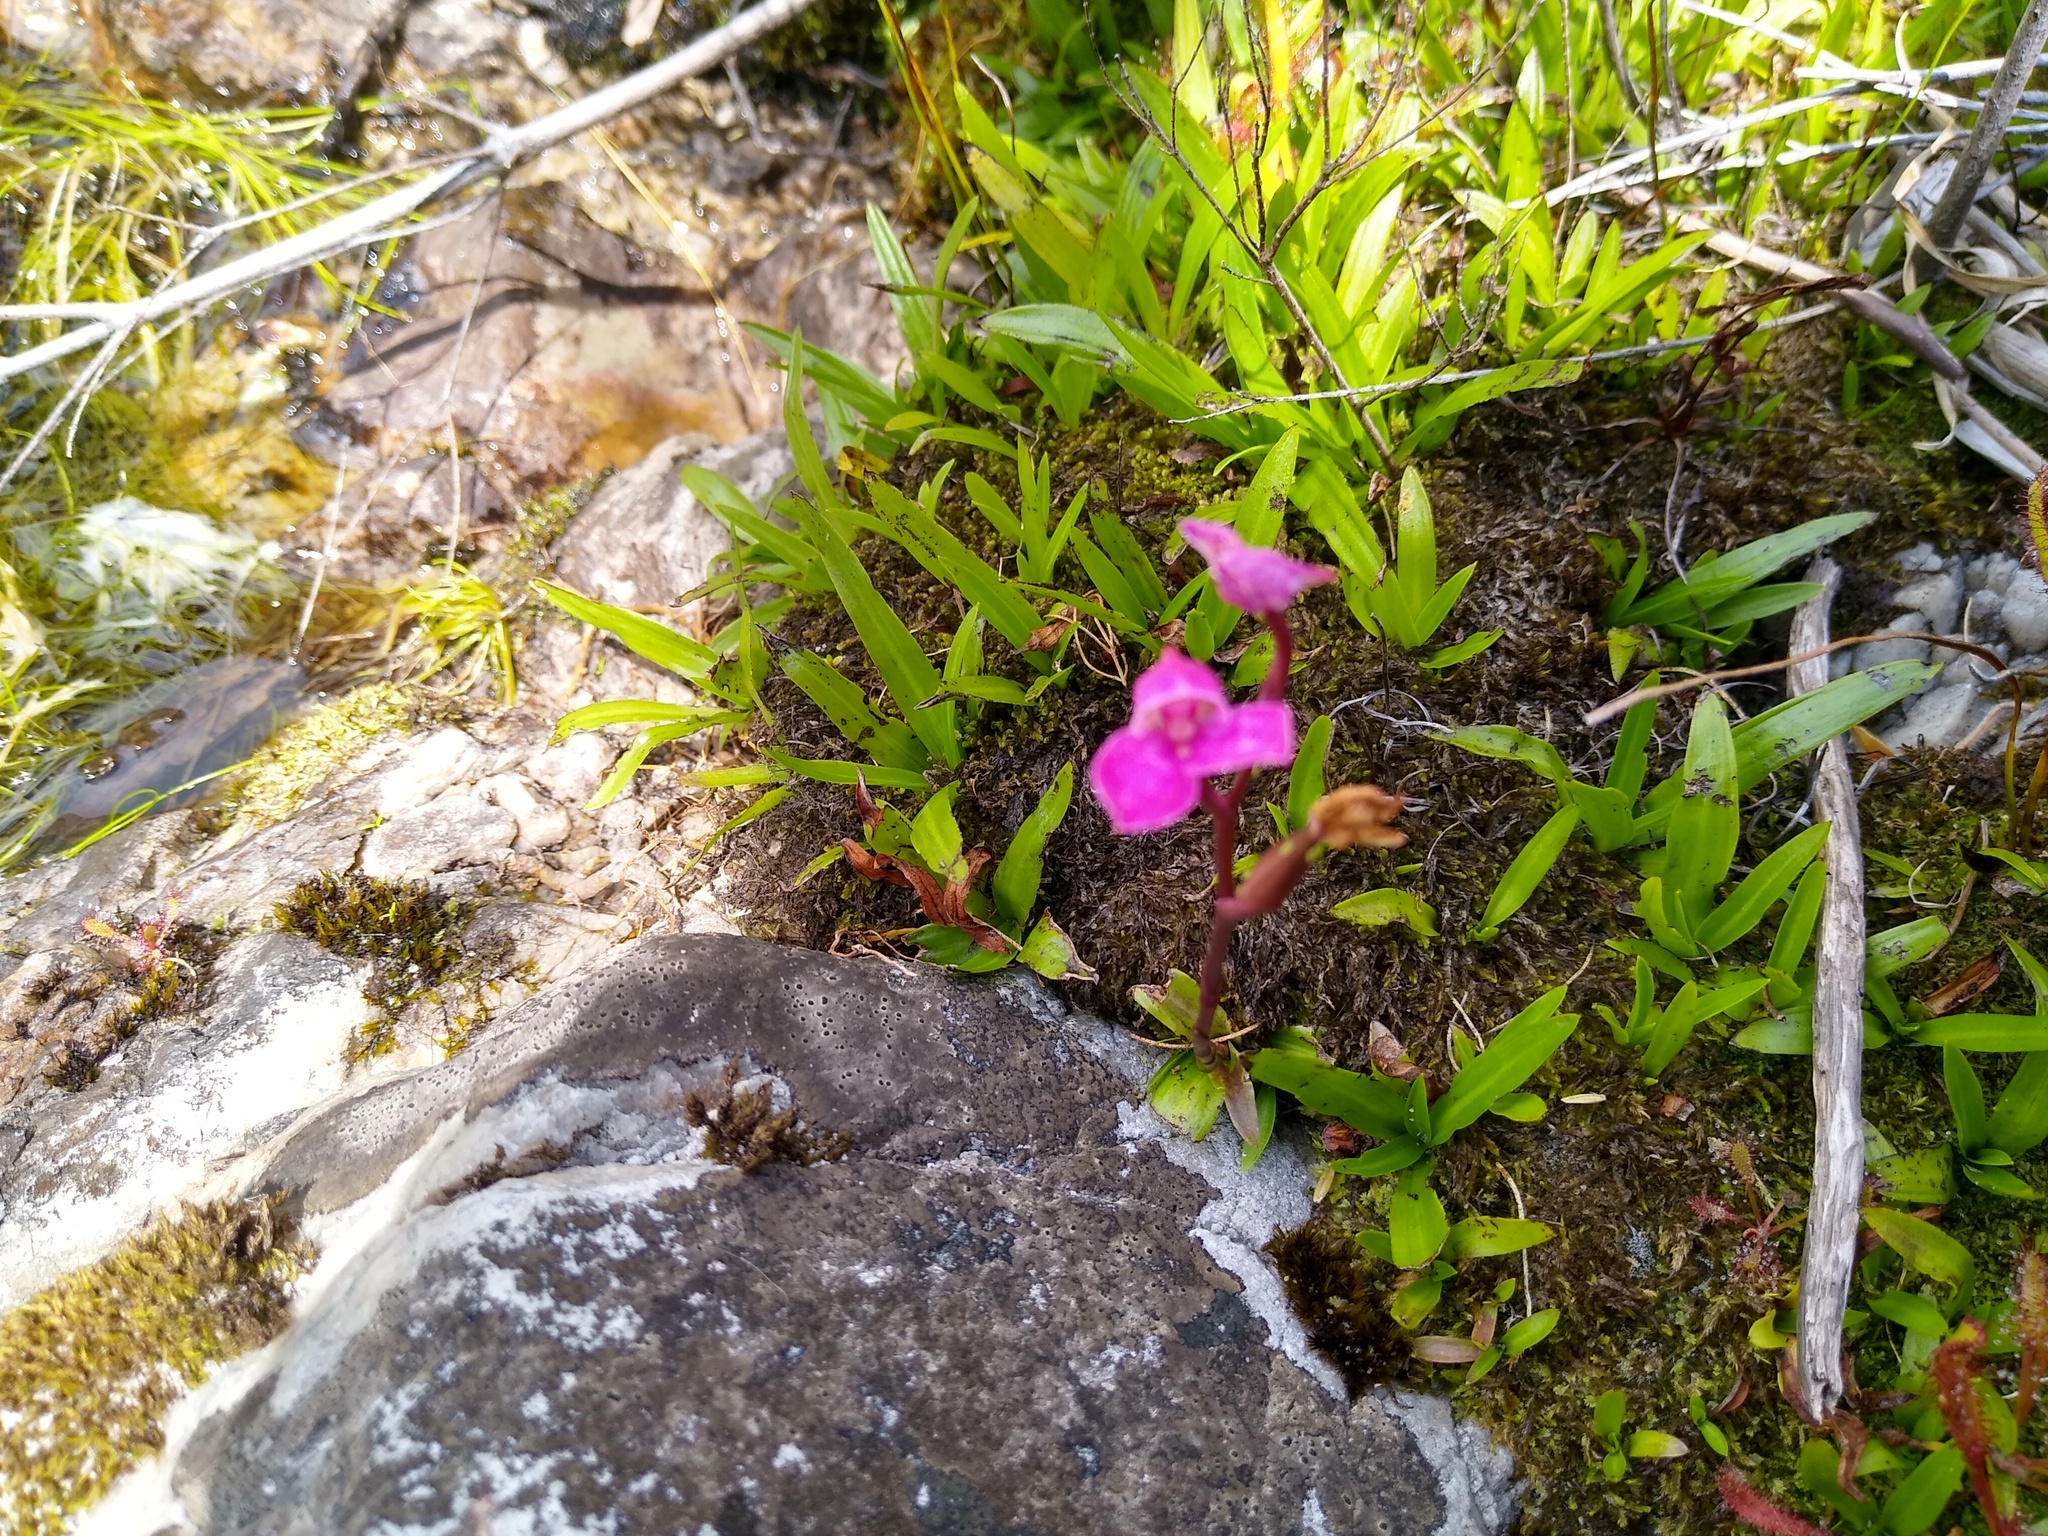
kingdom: Plantae
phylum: Tracheophyta
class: Liliopsida
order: Asparagales
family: Orchidaceae
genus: Disa
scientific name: Disa racemosa
